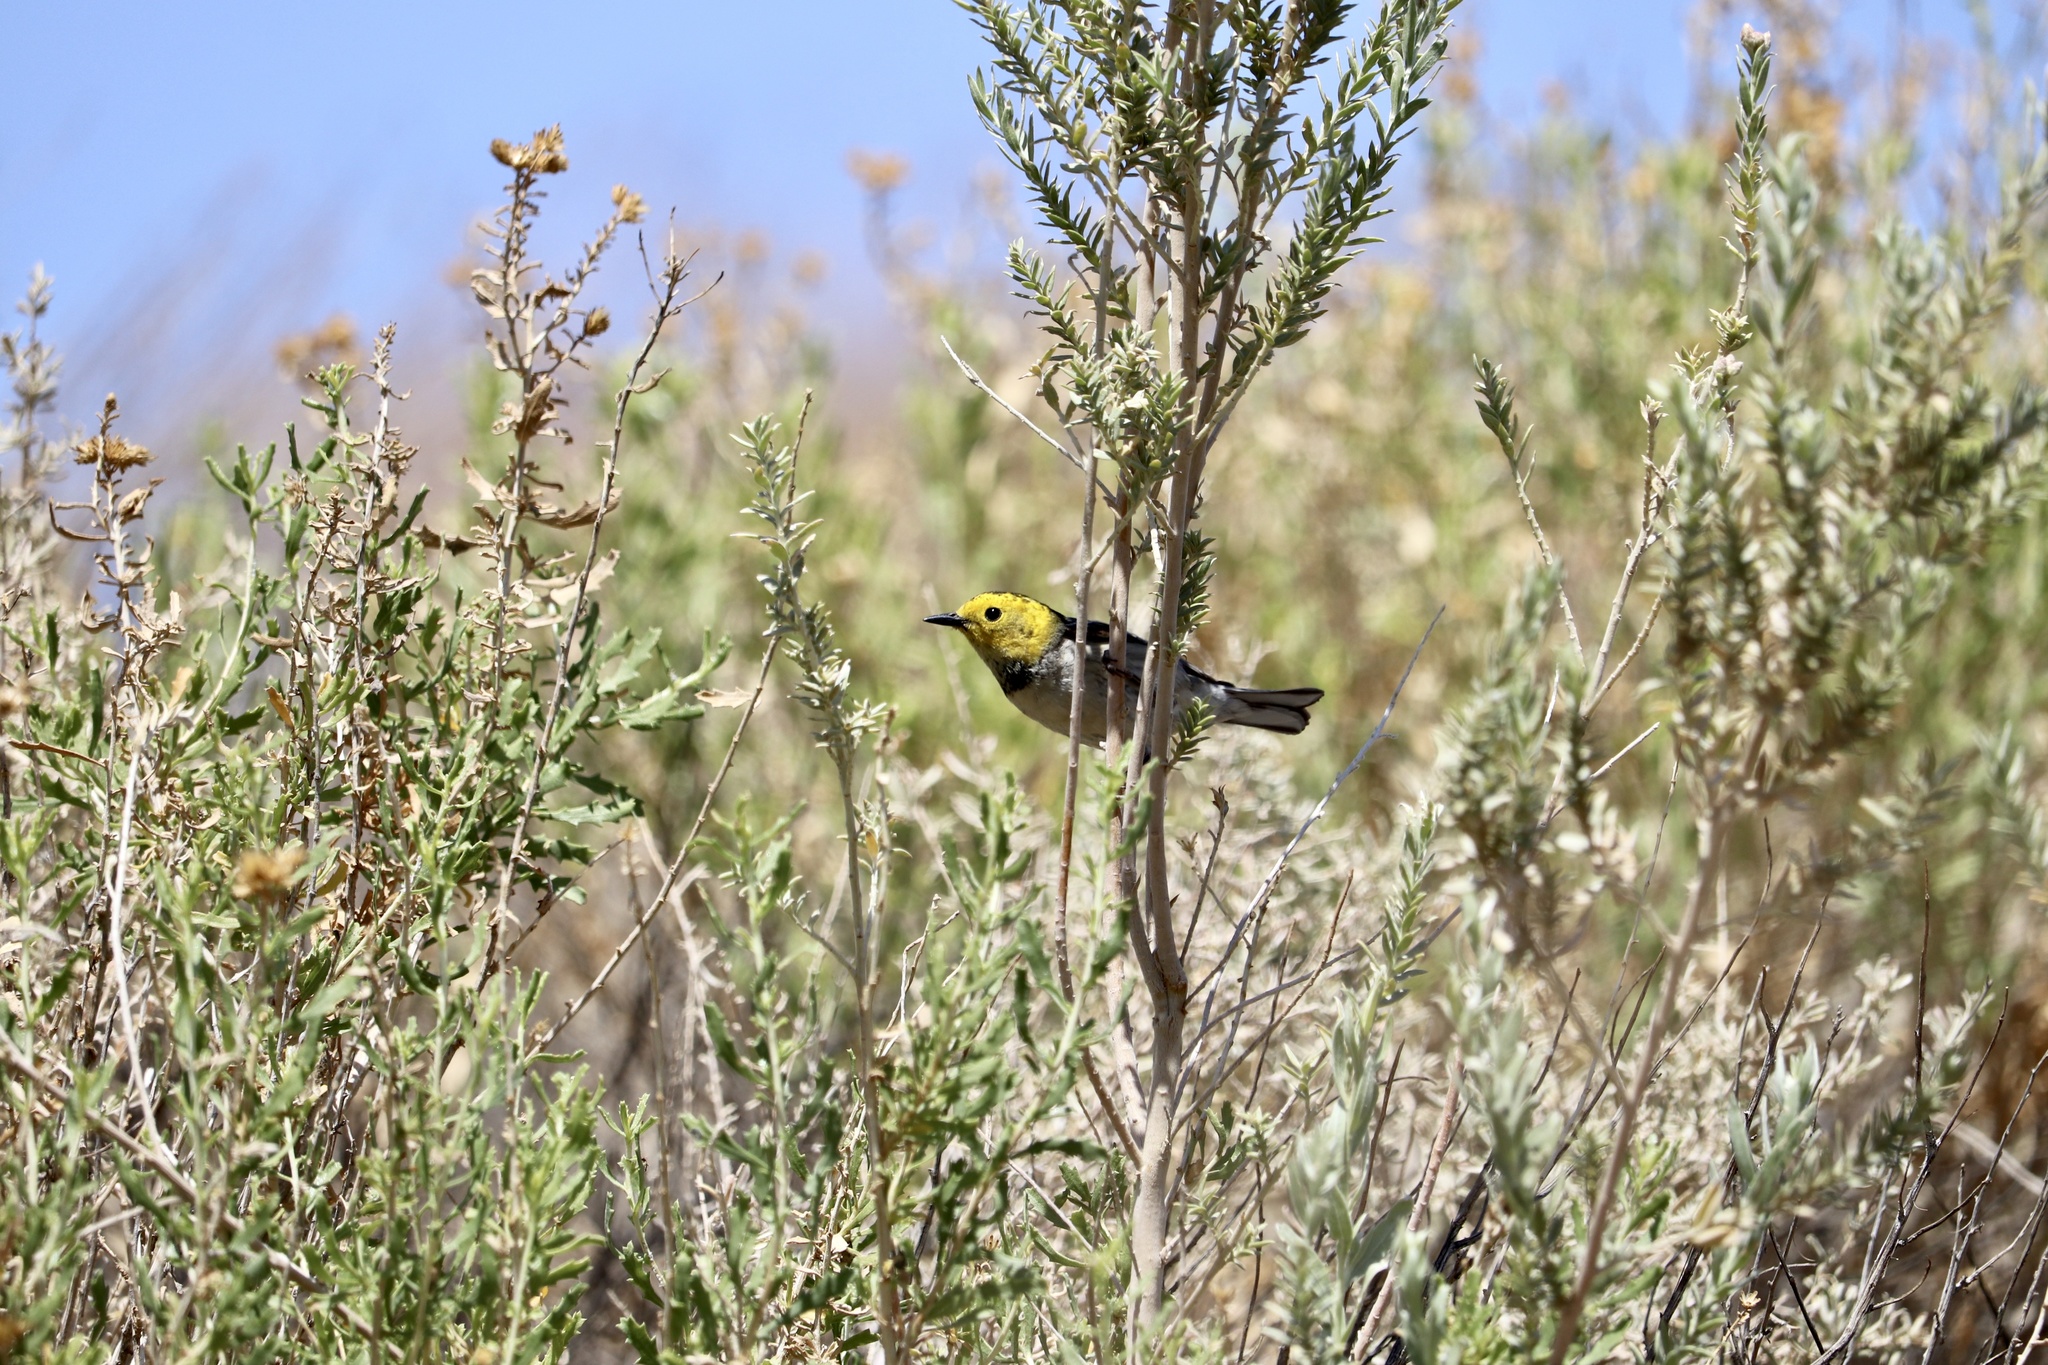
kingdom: Animalia
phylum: Chordata
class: Aves
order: Passeriformes
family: Parulidae
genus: Setophaga
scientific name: Setophaga occidentalis
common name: Hermit warbler
